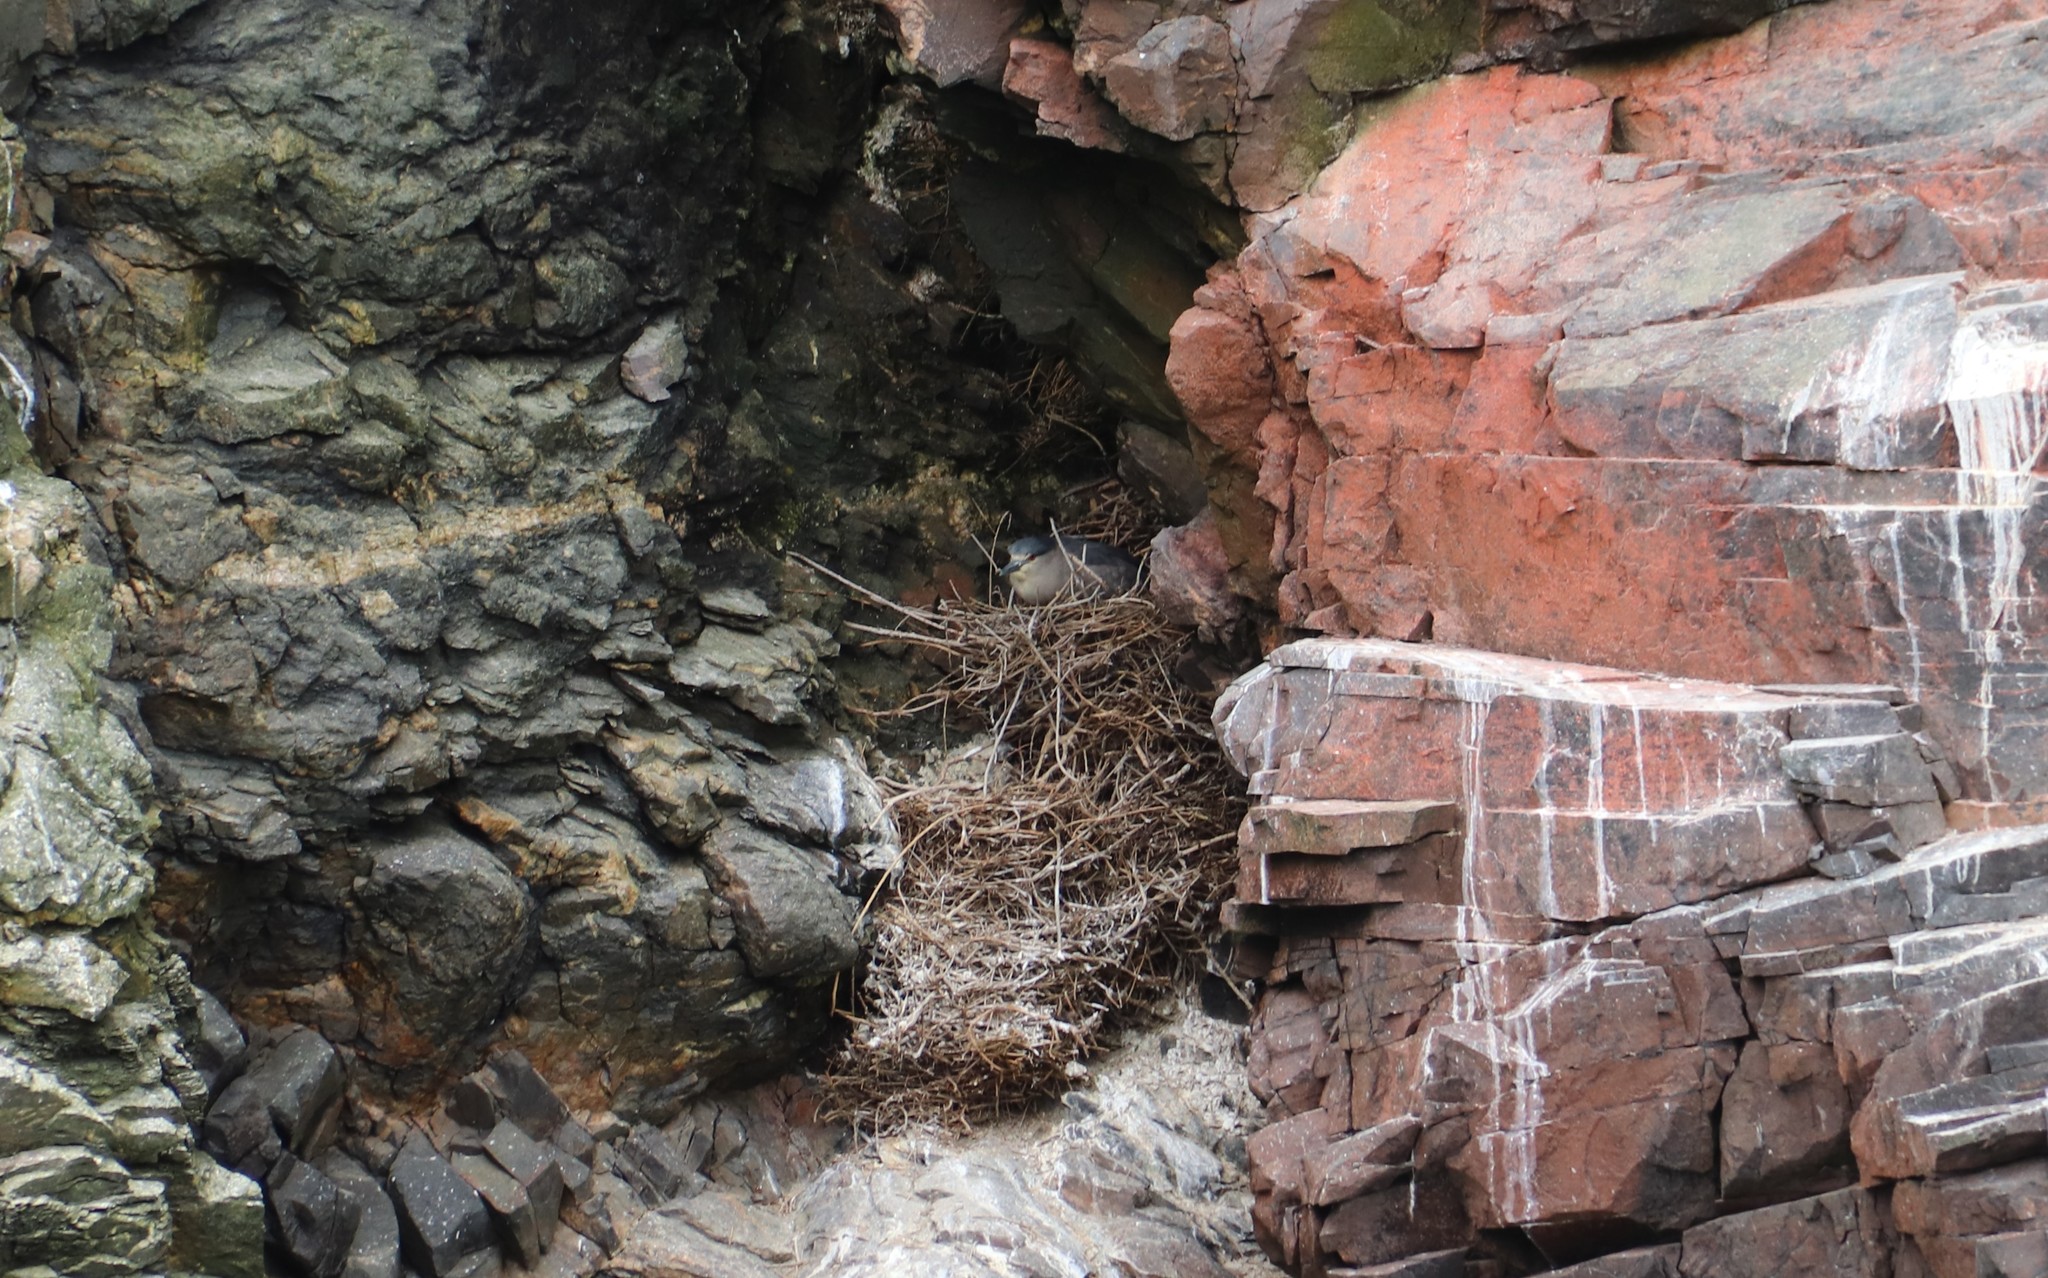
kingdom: Animalia
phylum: Chordata
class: Aves
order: Pelecaniformes
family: Ardeidae
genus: Nycticorax
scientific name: Nycticorax nycticorax
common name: Black-crowned night heron
